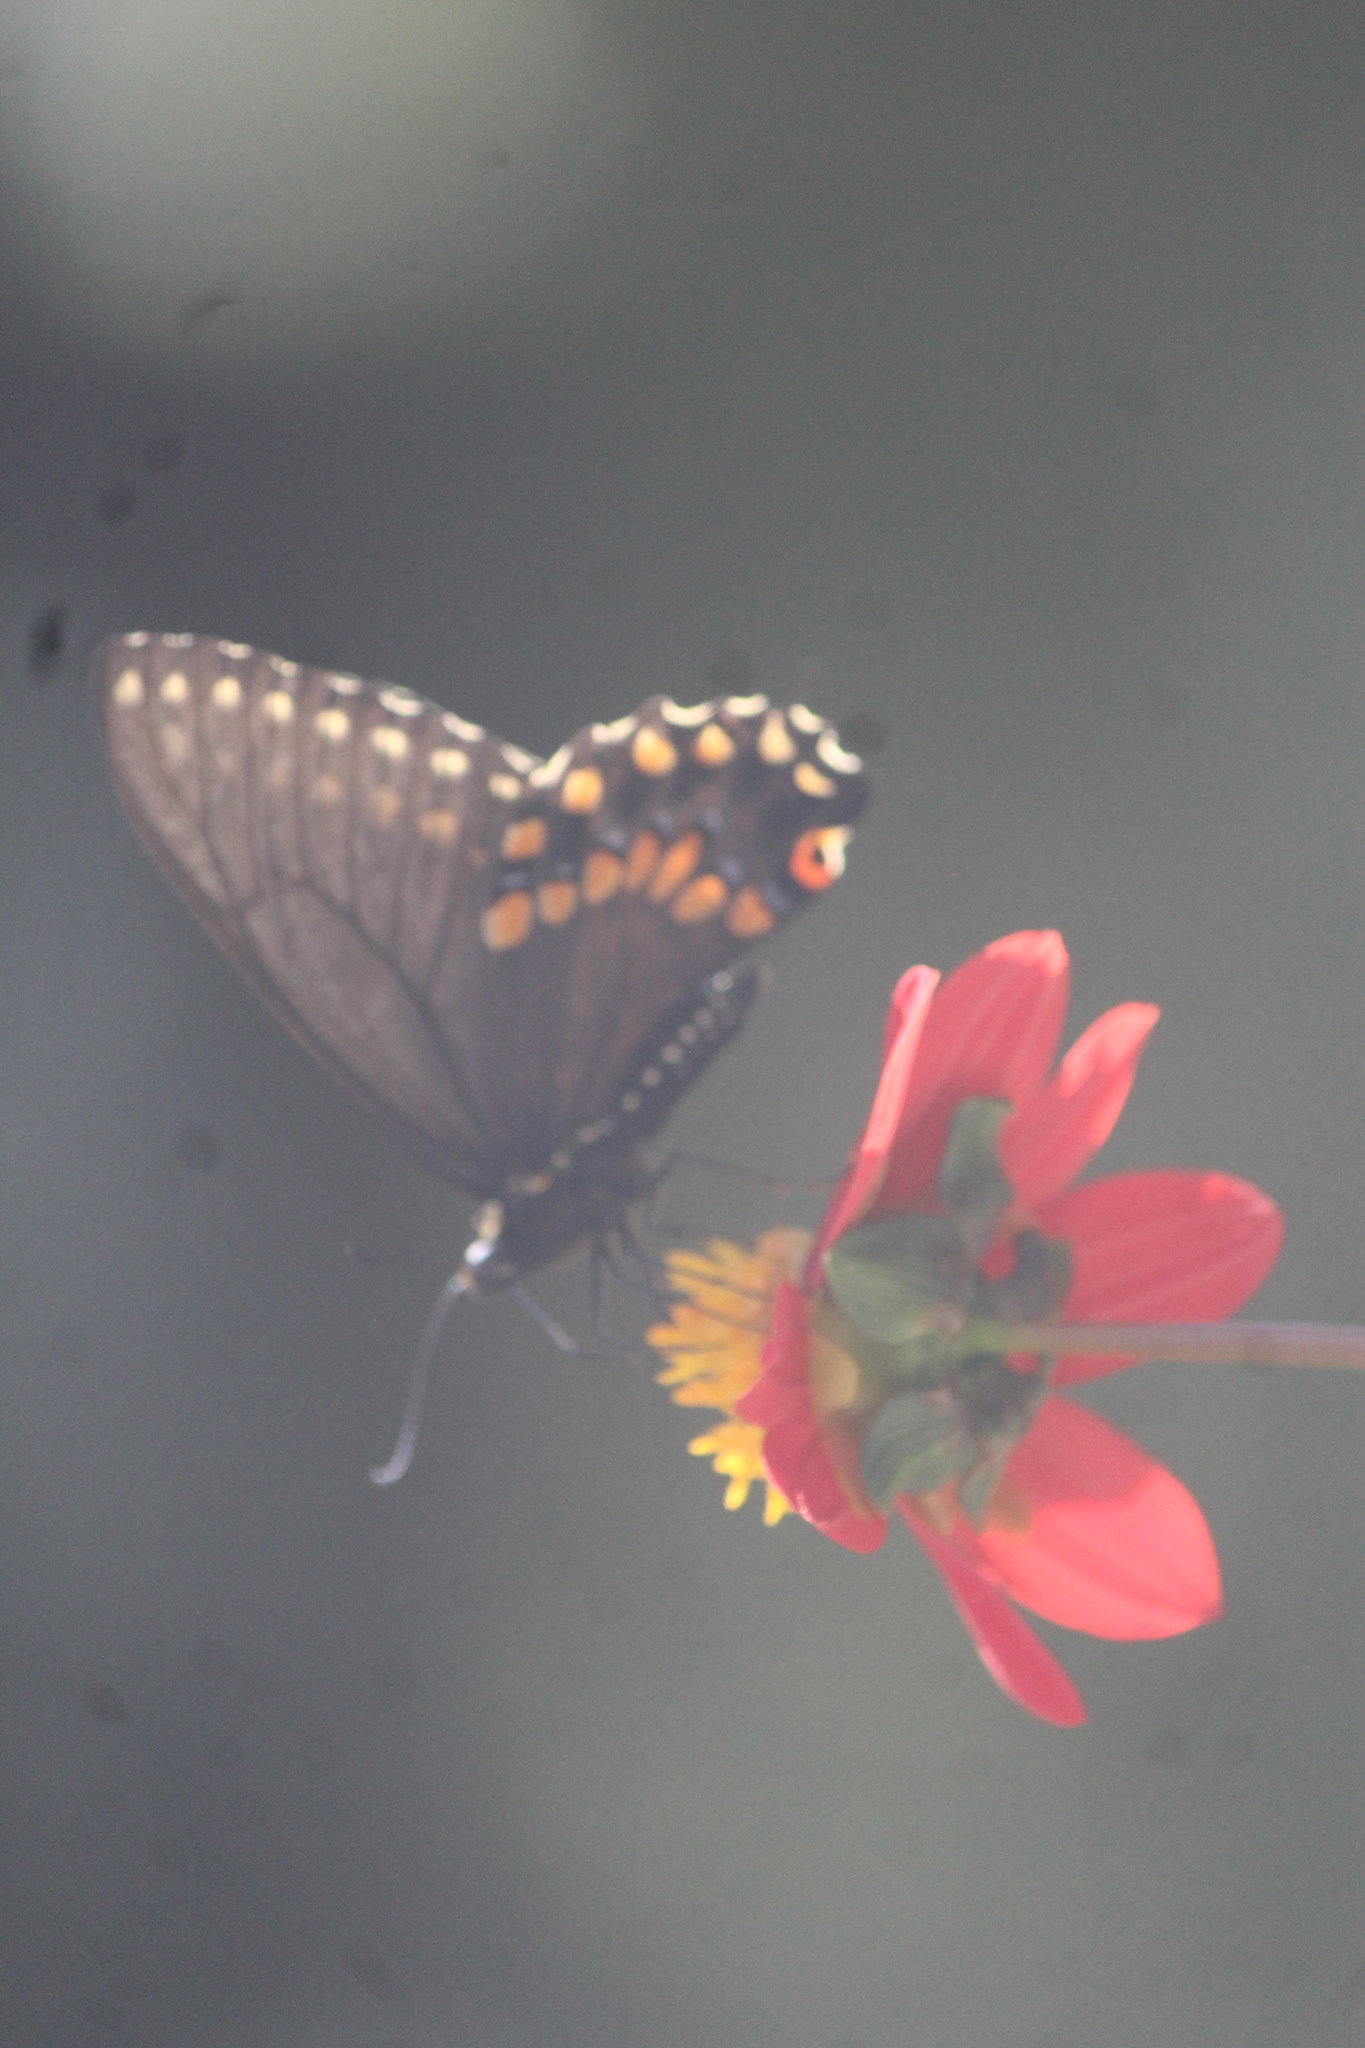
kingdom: Animalia
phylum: Arthropoda
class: Insecta
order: Lepidoptera
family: Papilionidae
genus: Papilio
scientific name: Papilio polyxenes
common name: Black swallowtail
